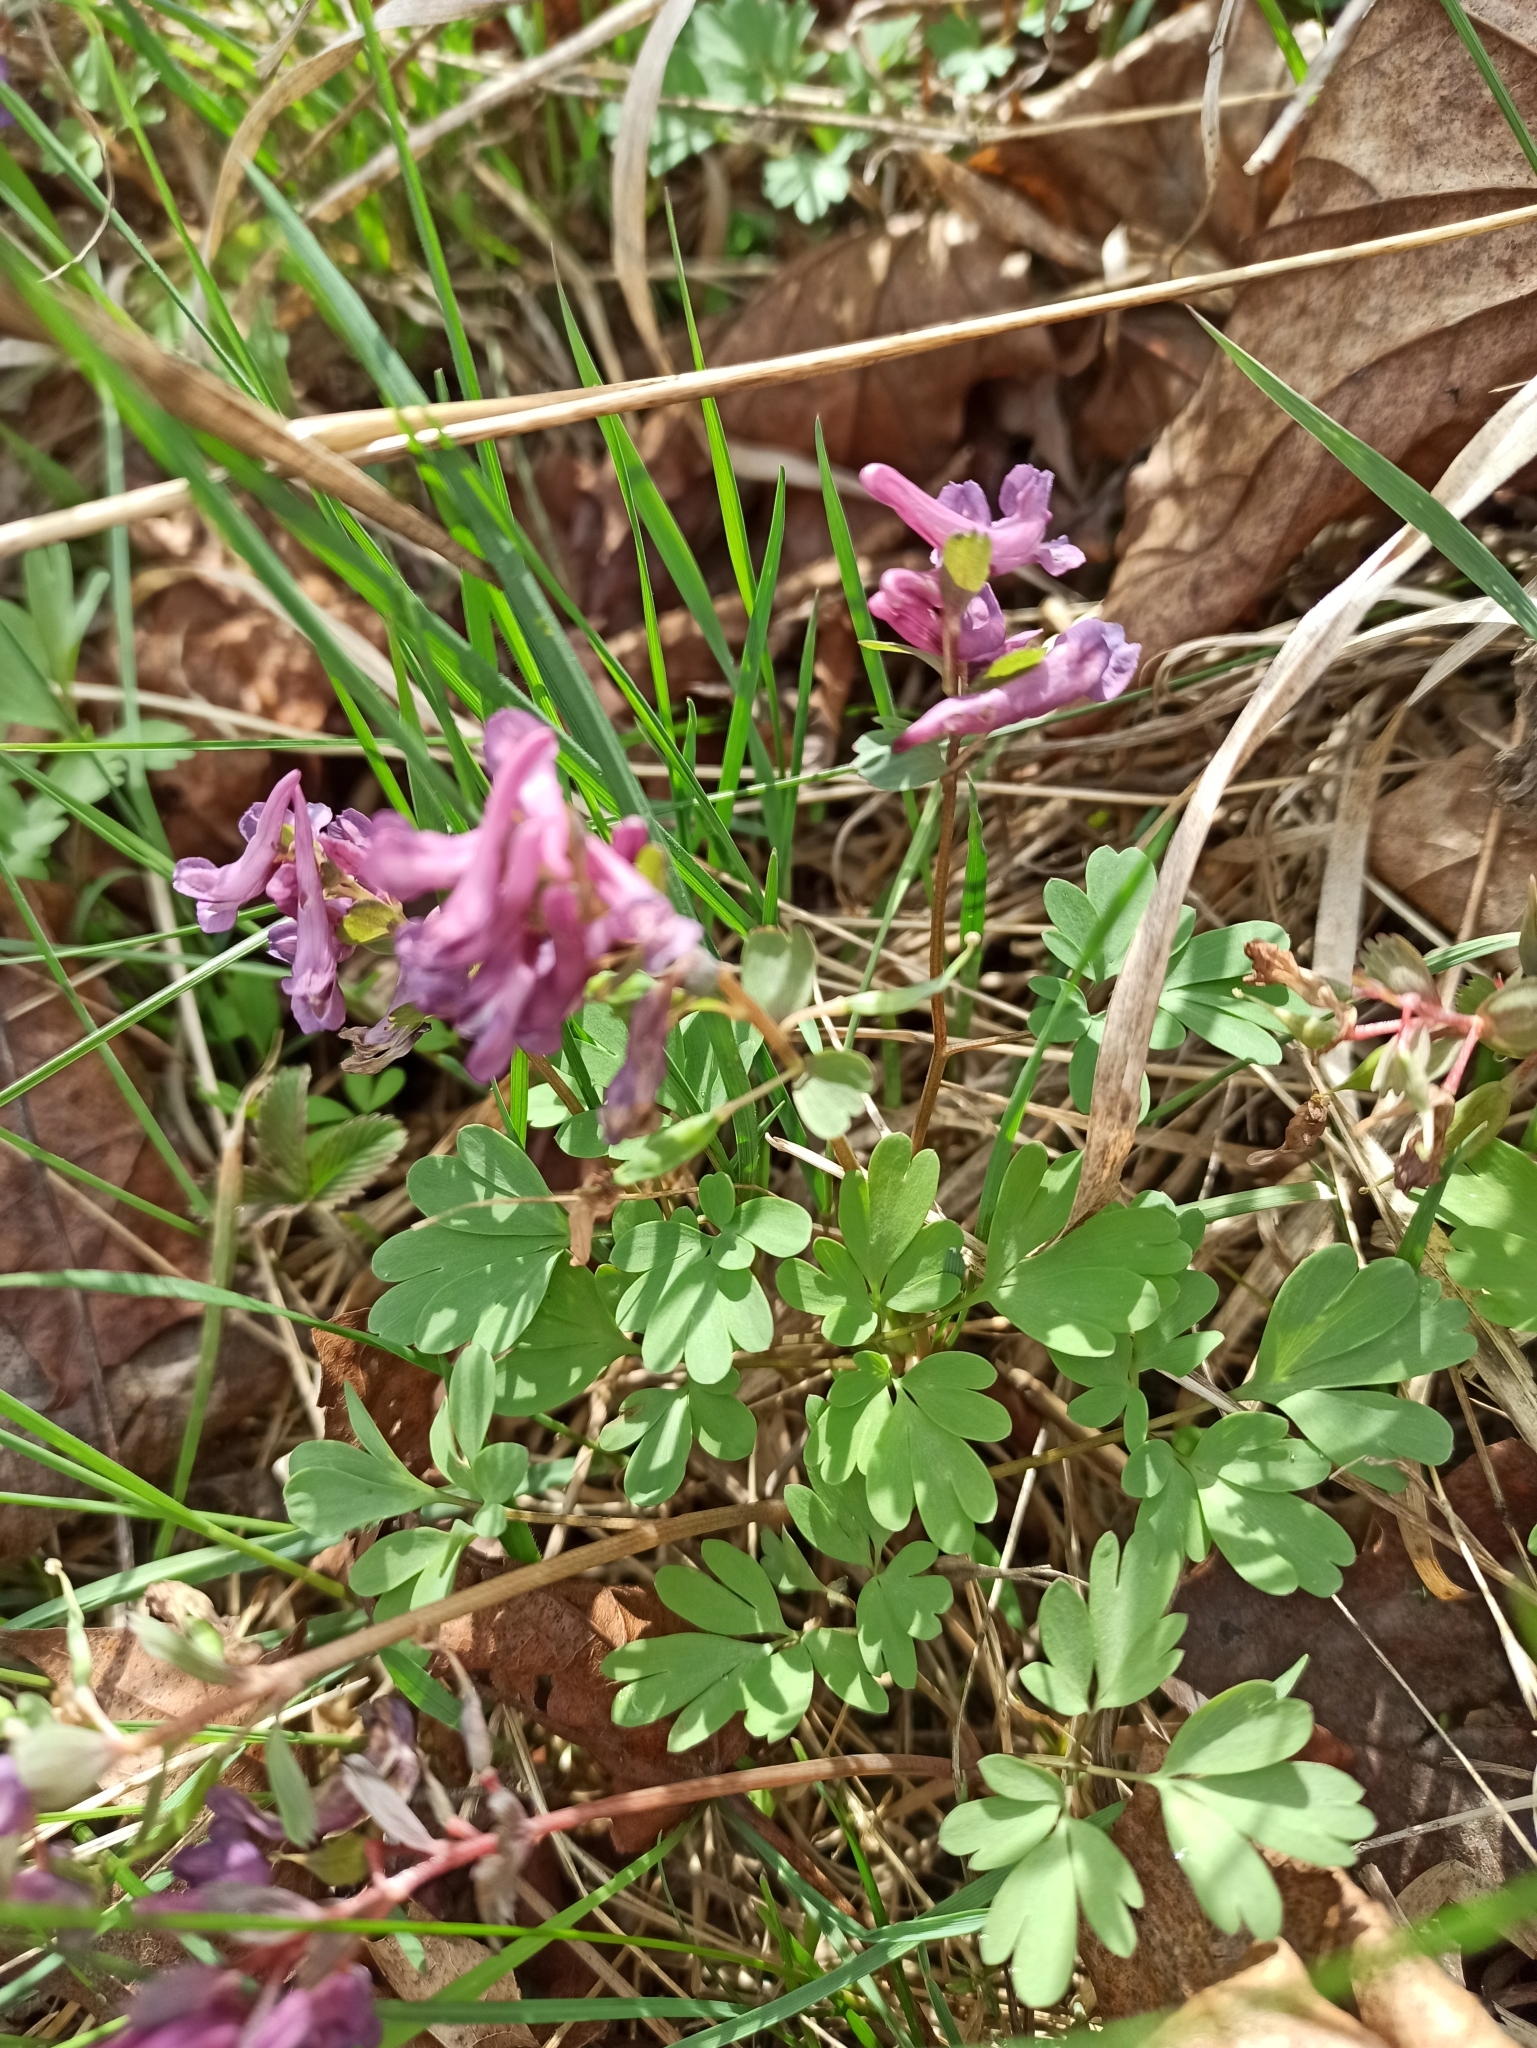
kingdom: Plantae
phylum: Tracheophyta
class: Magnoliopsida
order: Ranunculales
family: Papaveraceae
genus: Corydalis
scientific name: Corydalis solida
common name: Bird-in-a-bush
